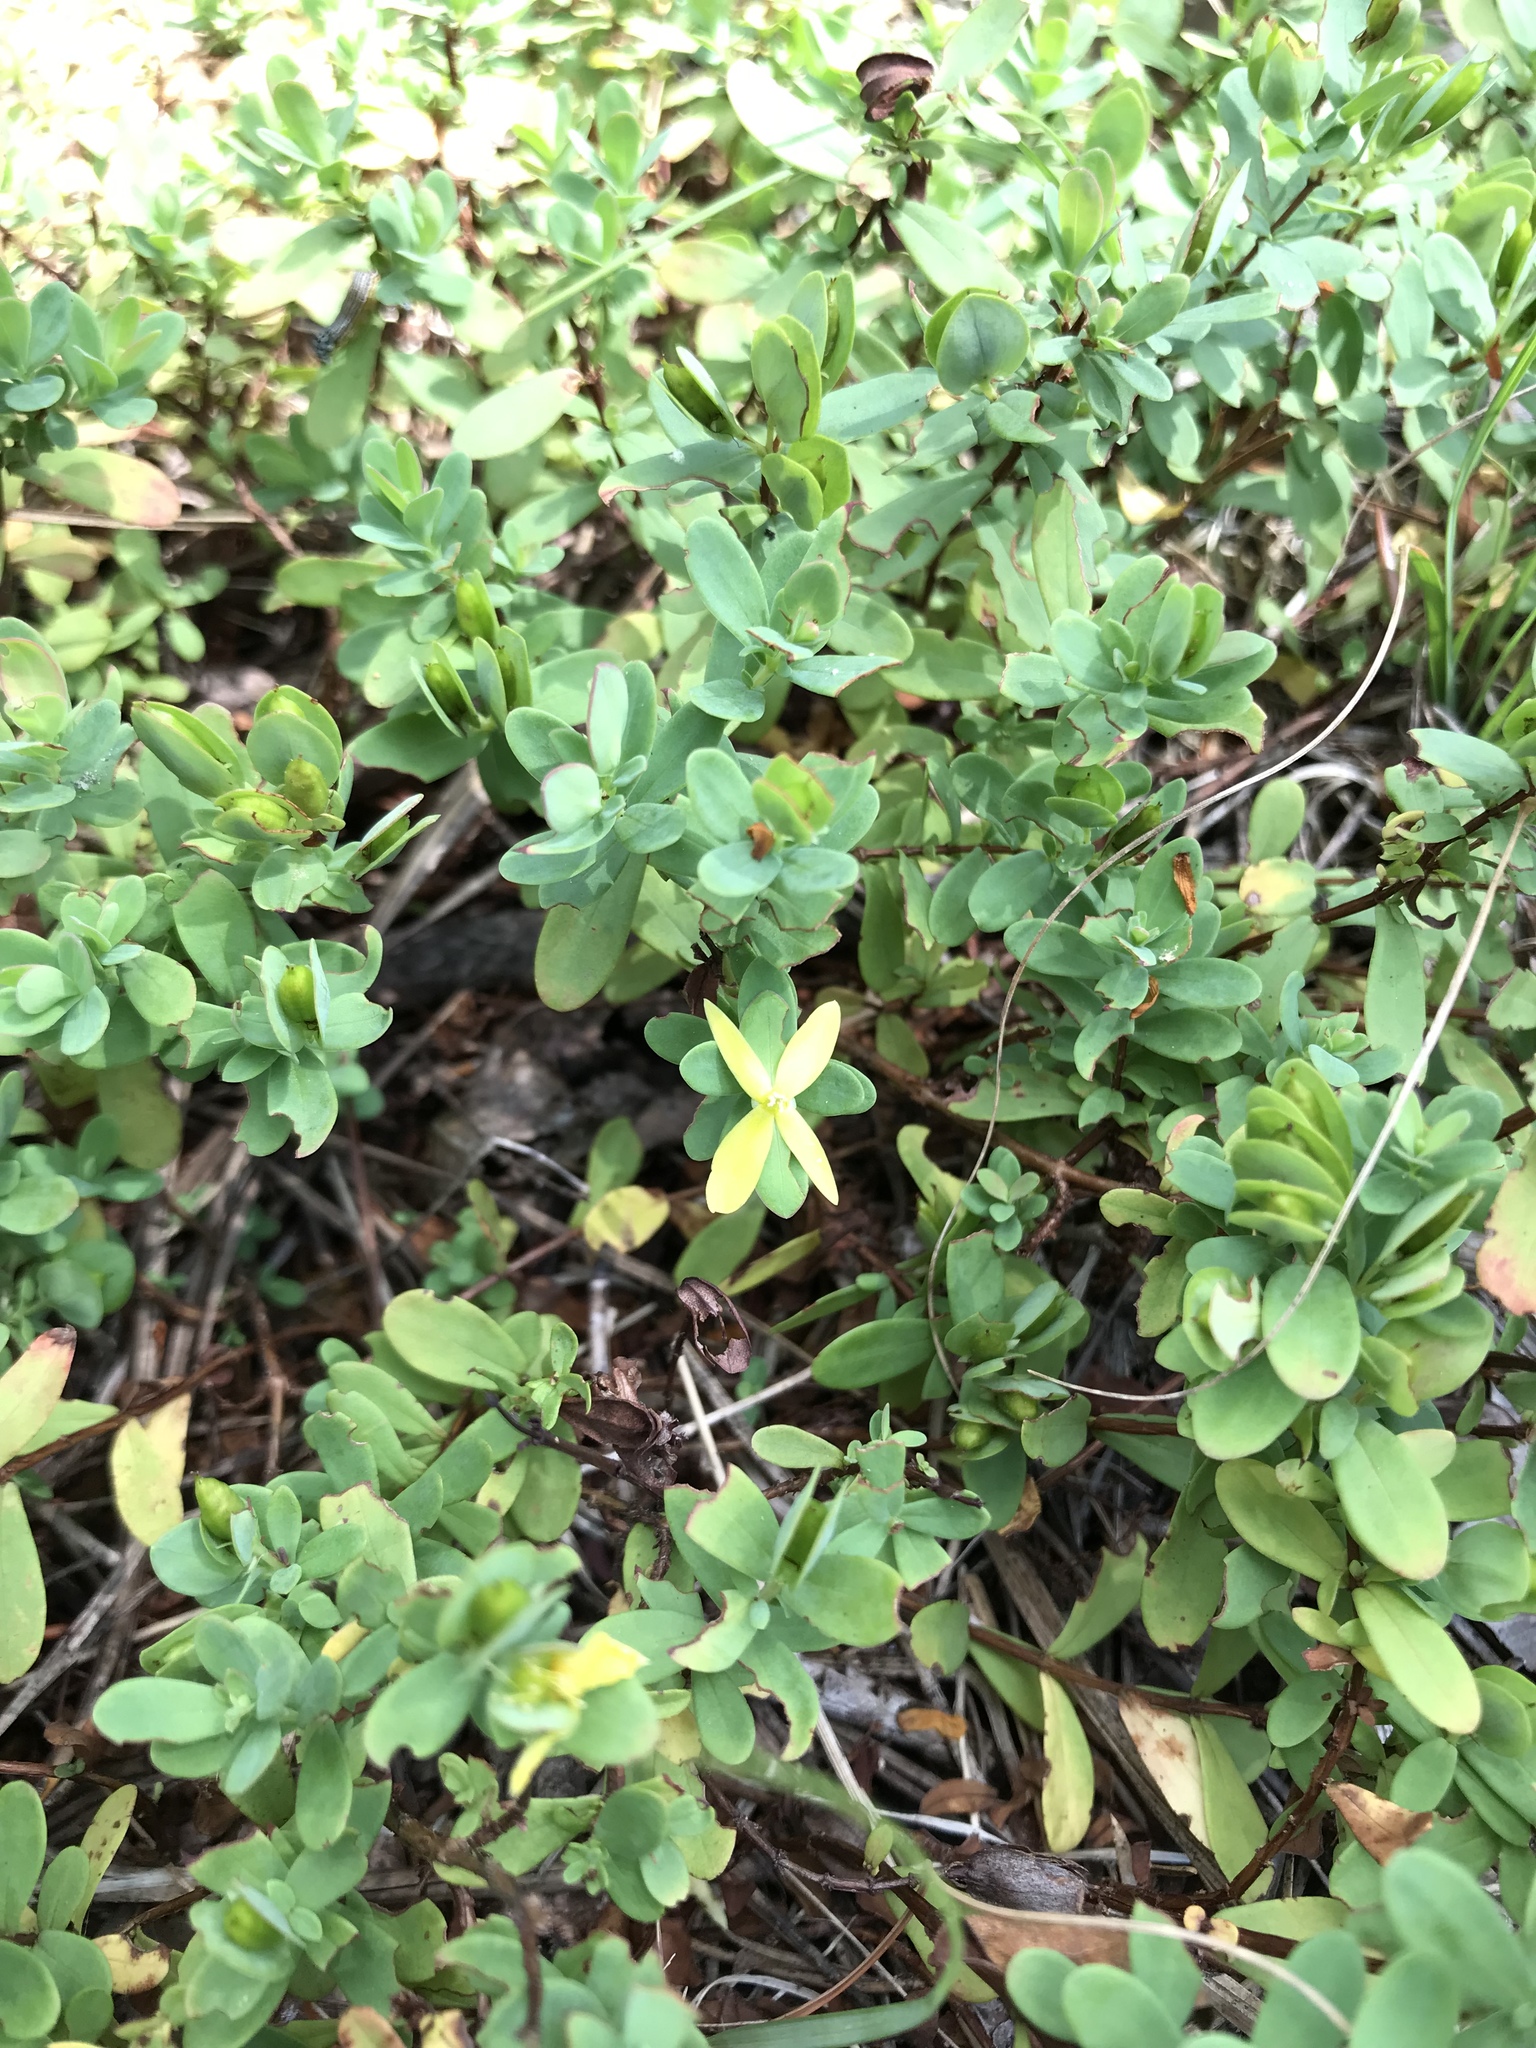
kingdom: Plantae
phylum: Tracheophyta
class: Magnoliopsida
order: Malpighiales
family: Hypericaceae
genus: Hypericum
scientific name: Hypericum hypericoides
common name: St. andrew's cross
